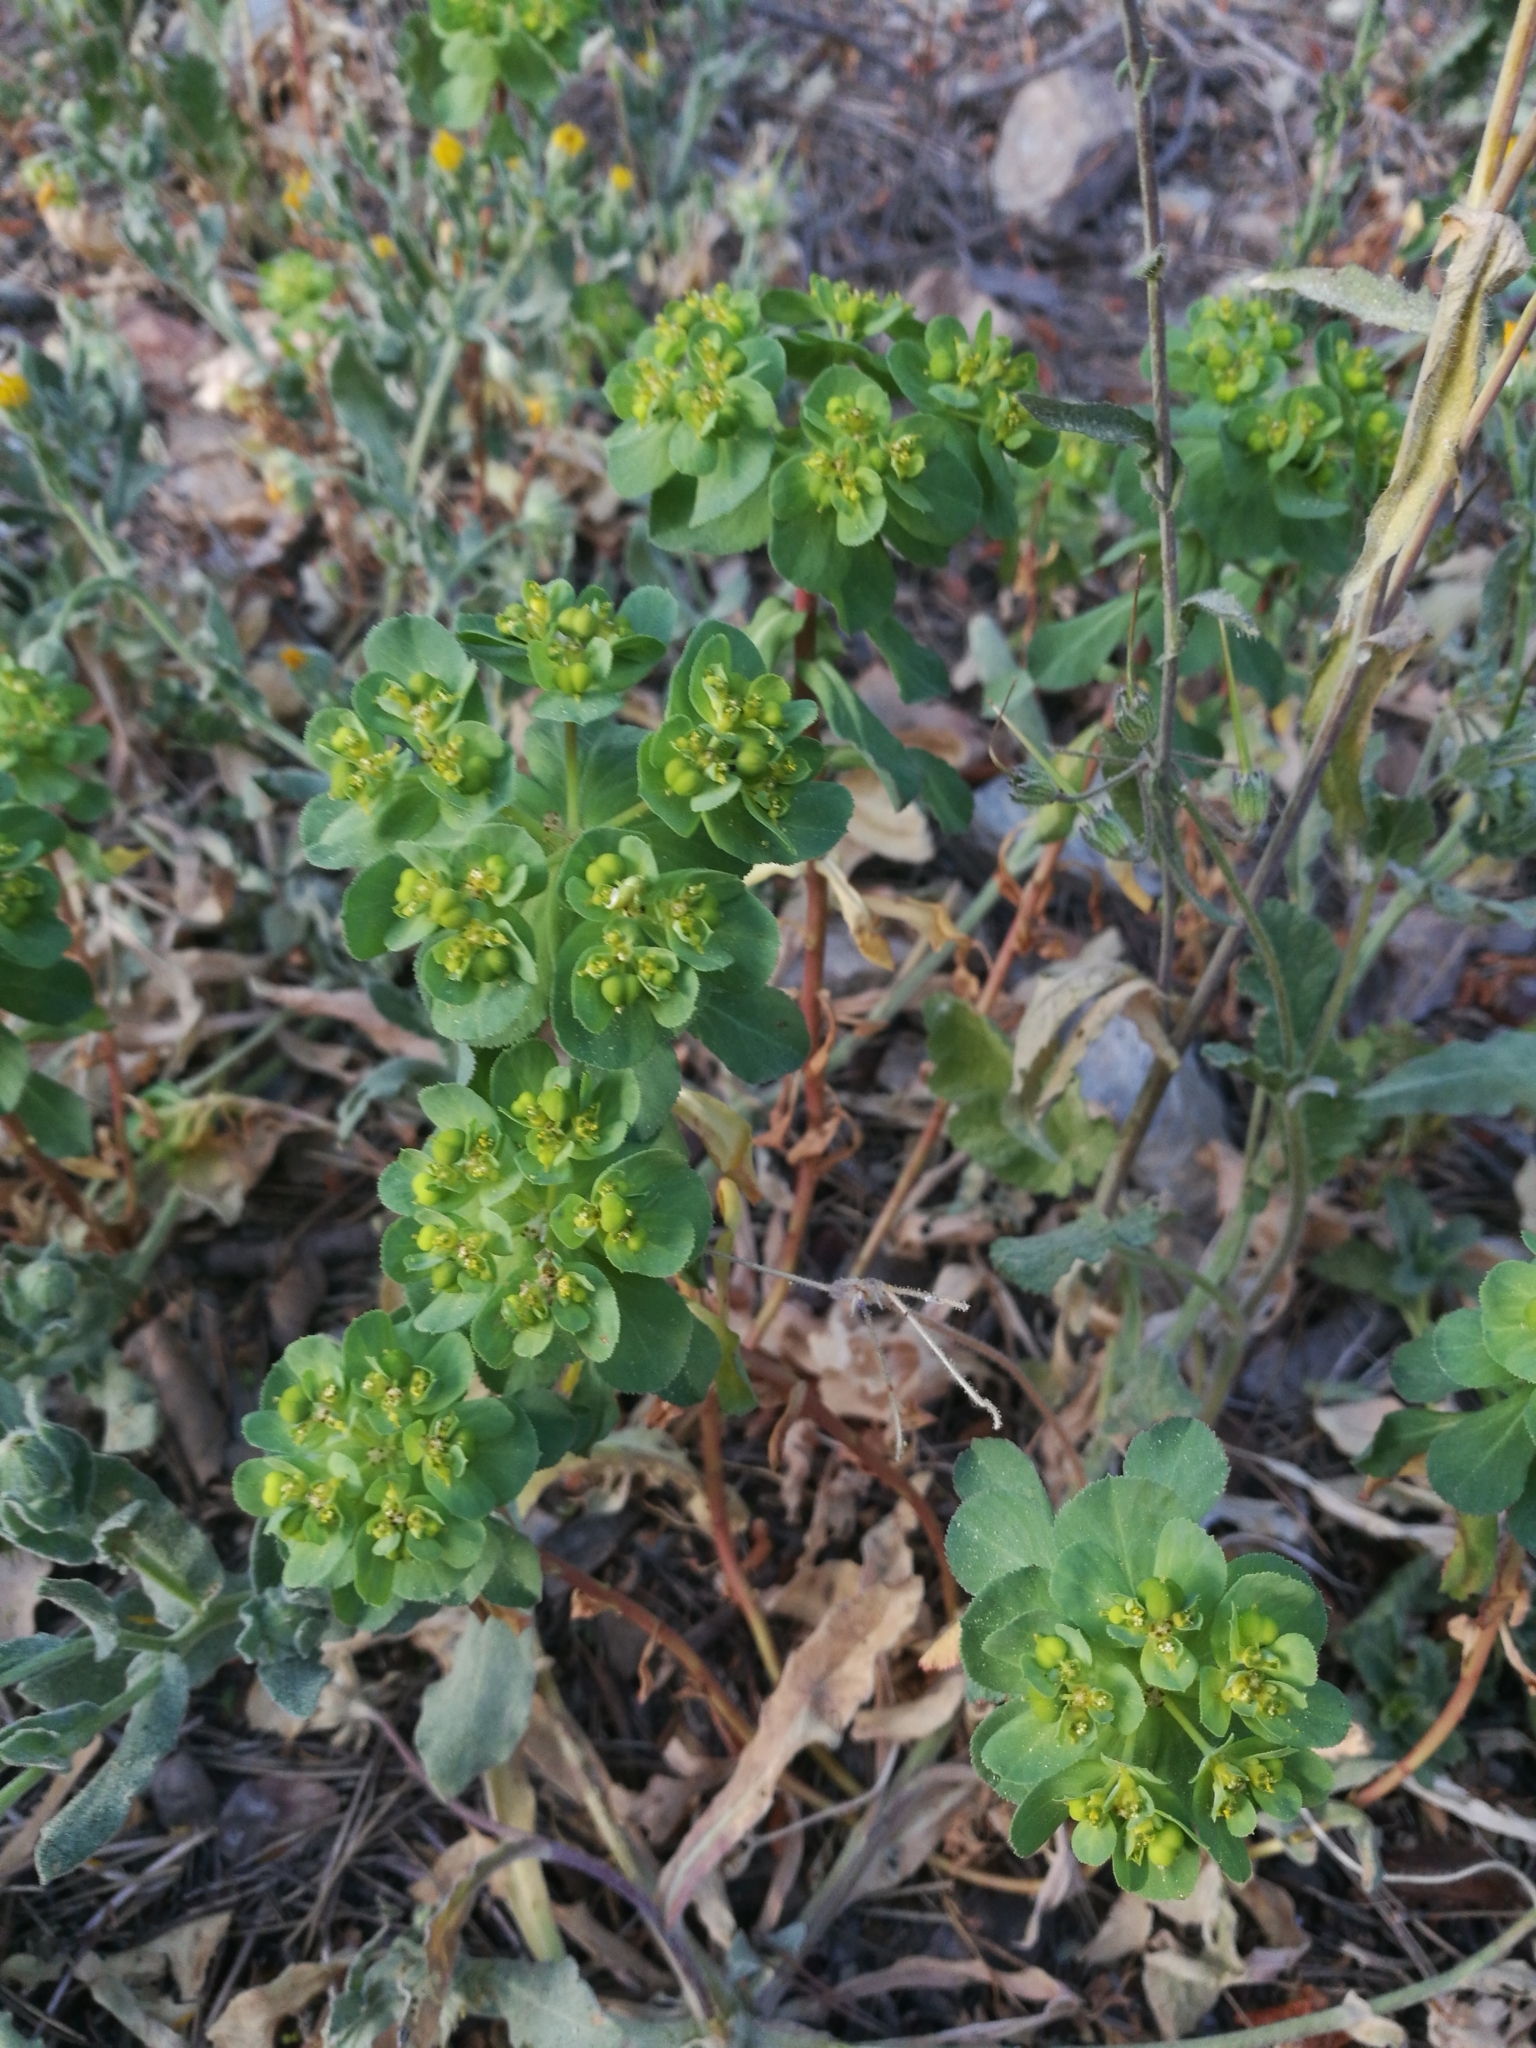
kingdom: Plantae
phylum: Tracheophyta
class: Magnoliopsida
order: Malpighiales
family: Euphorbiaceae
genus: Euphorbia
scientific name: Euphorbia helioscopia
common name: Sun spurge
